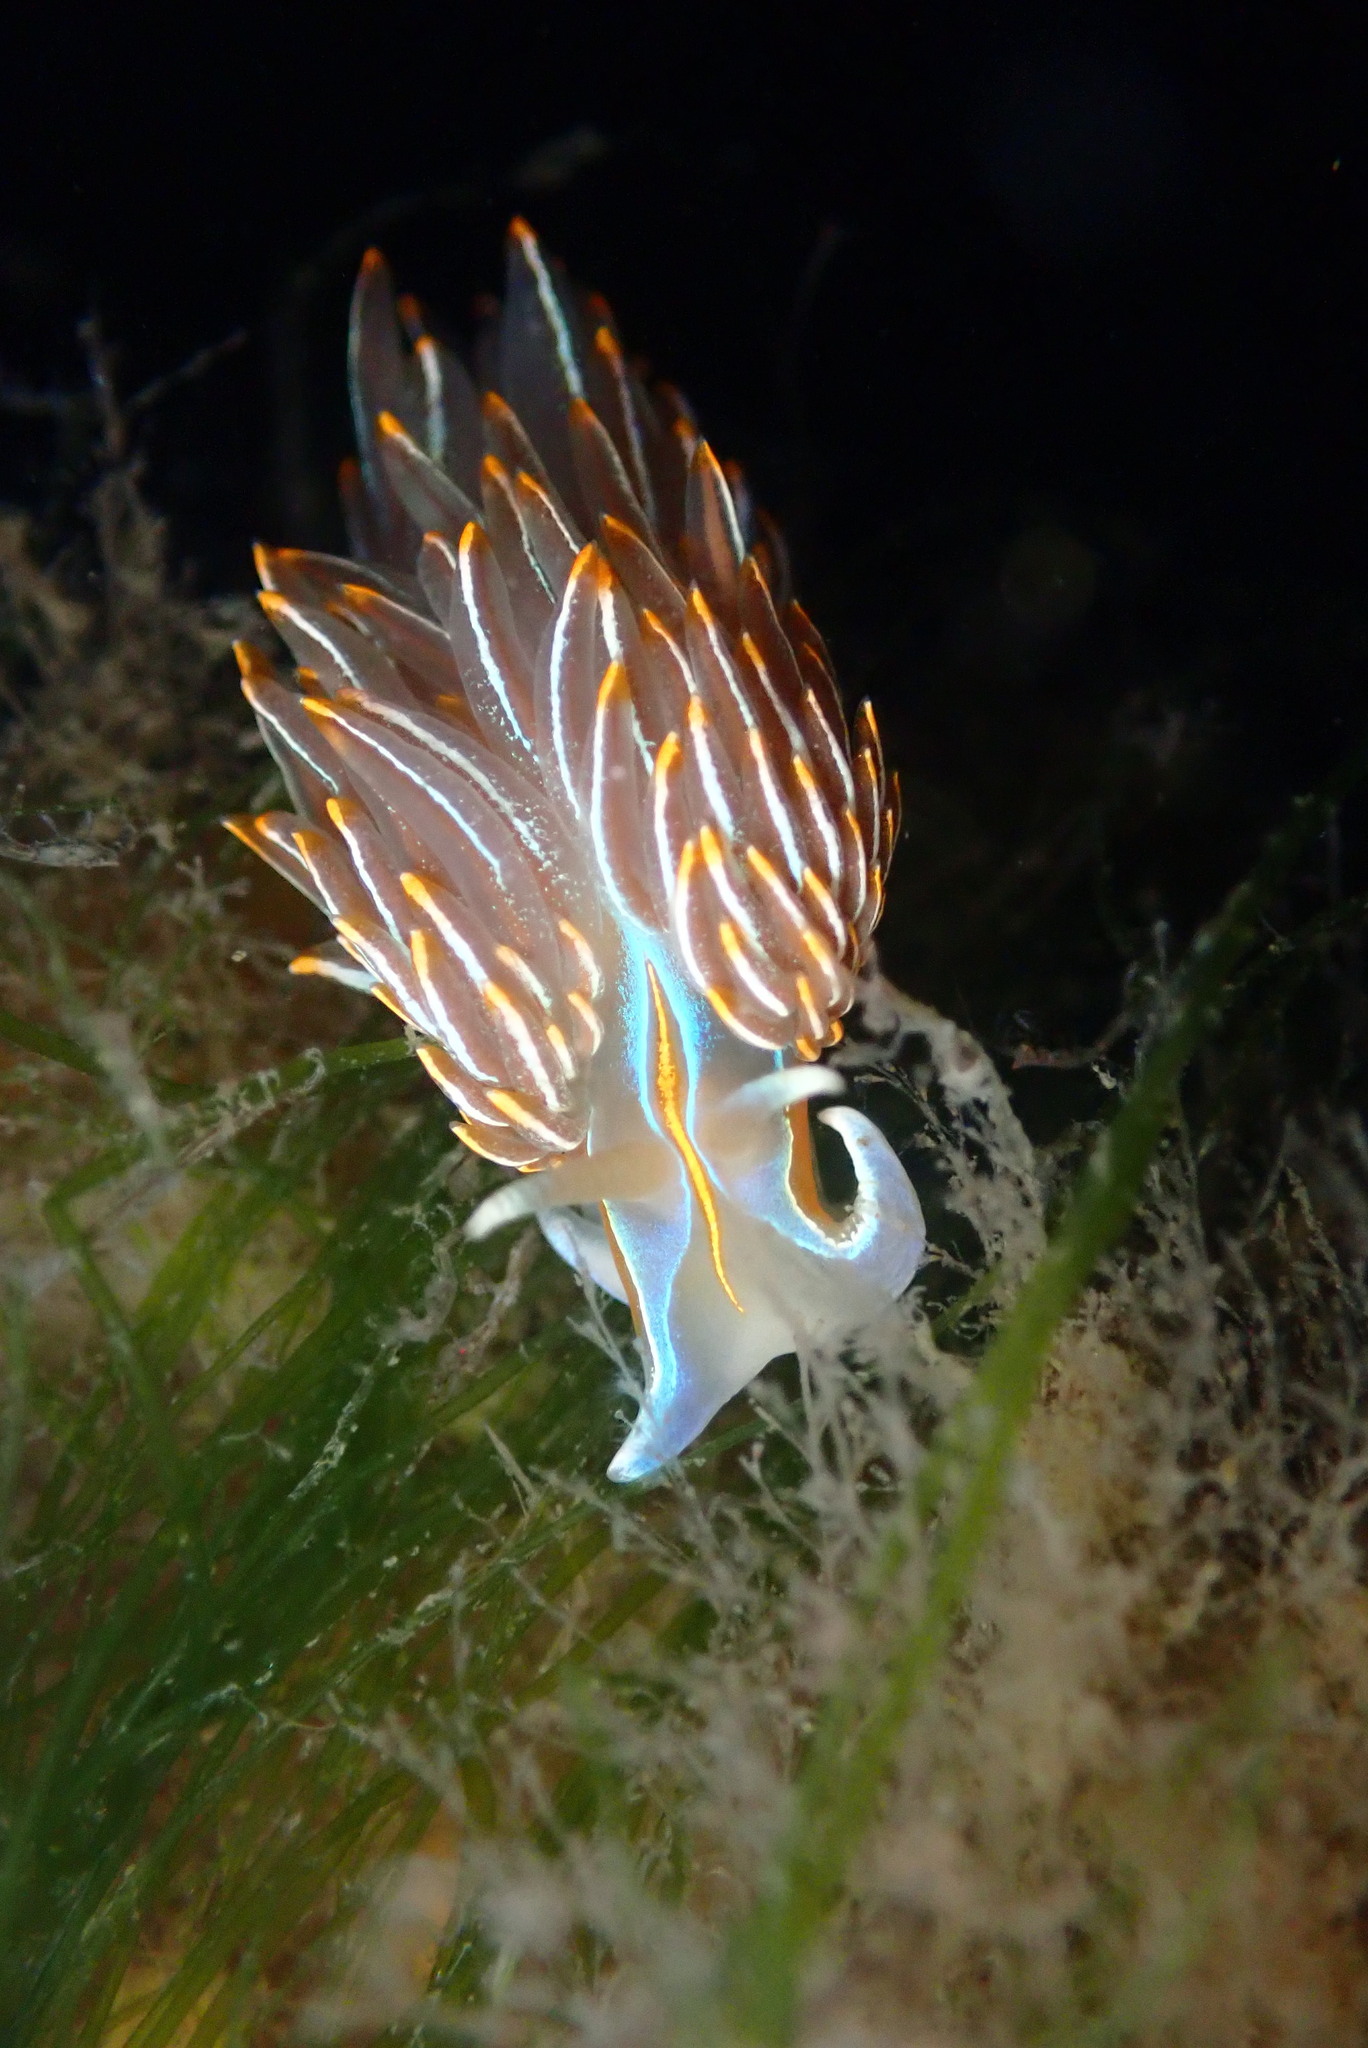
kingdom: Animalia
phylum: Mollusca
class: Gastropoda
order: Nudibranchia
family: Myrrhinidae
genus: Hermissenda
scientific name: Hermissenda crassicornis
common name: Hermissenda
